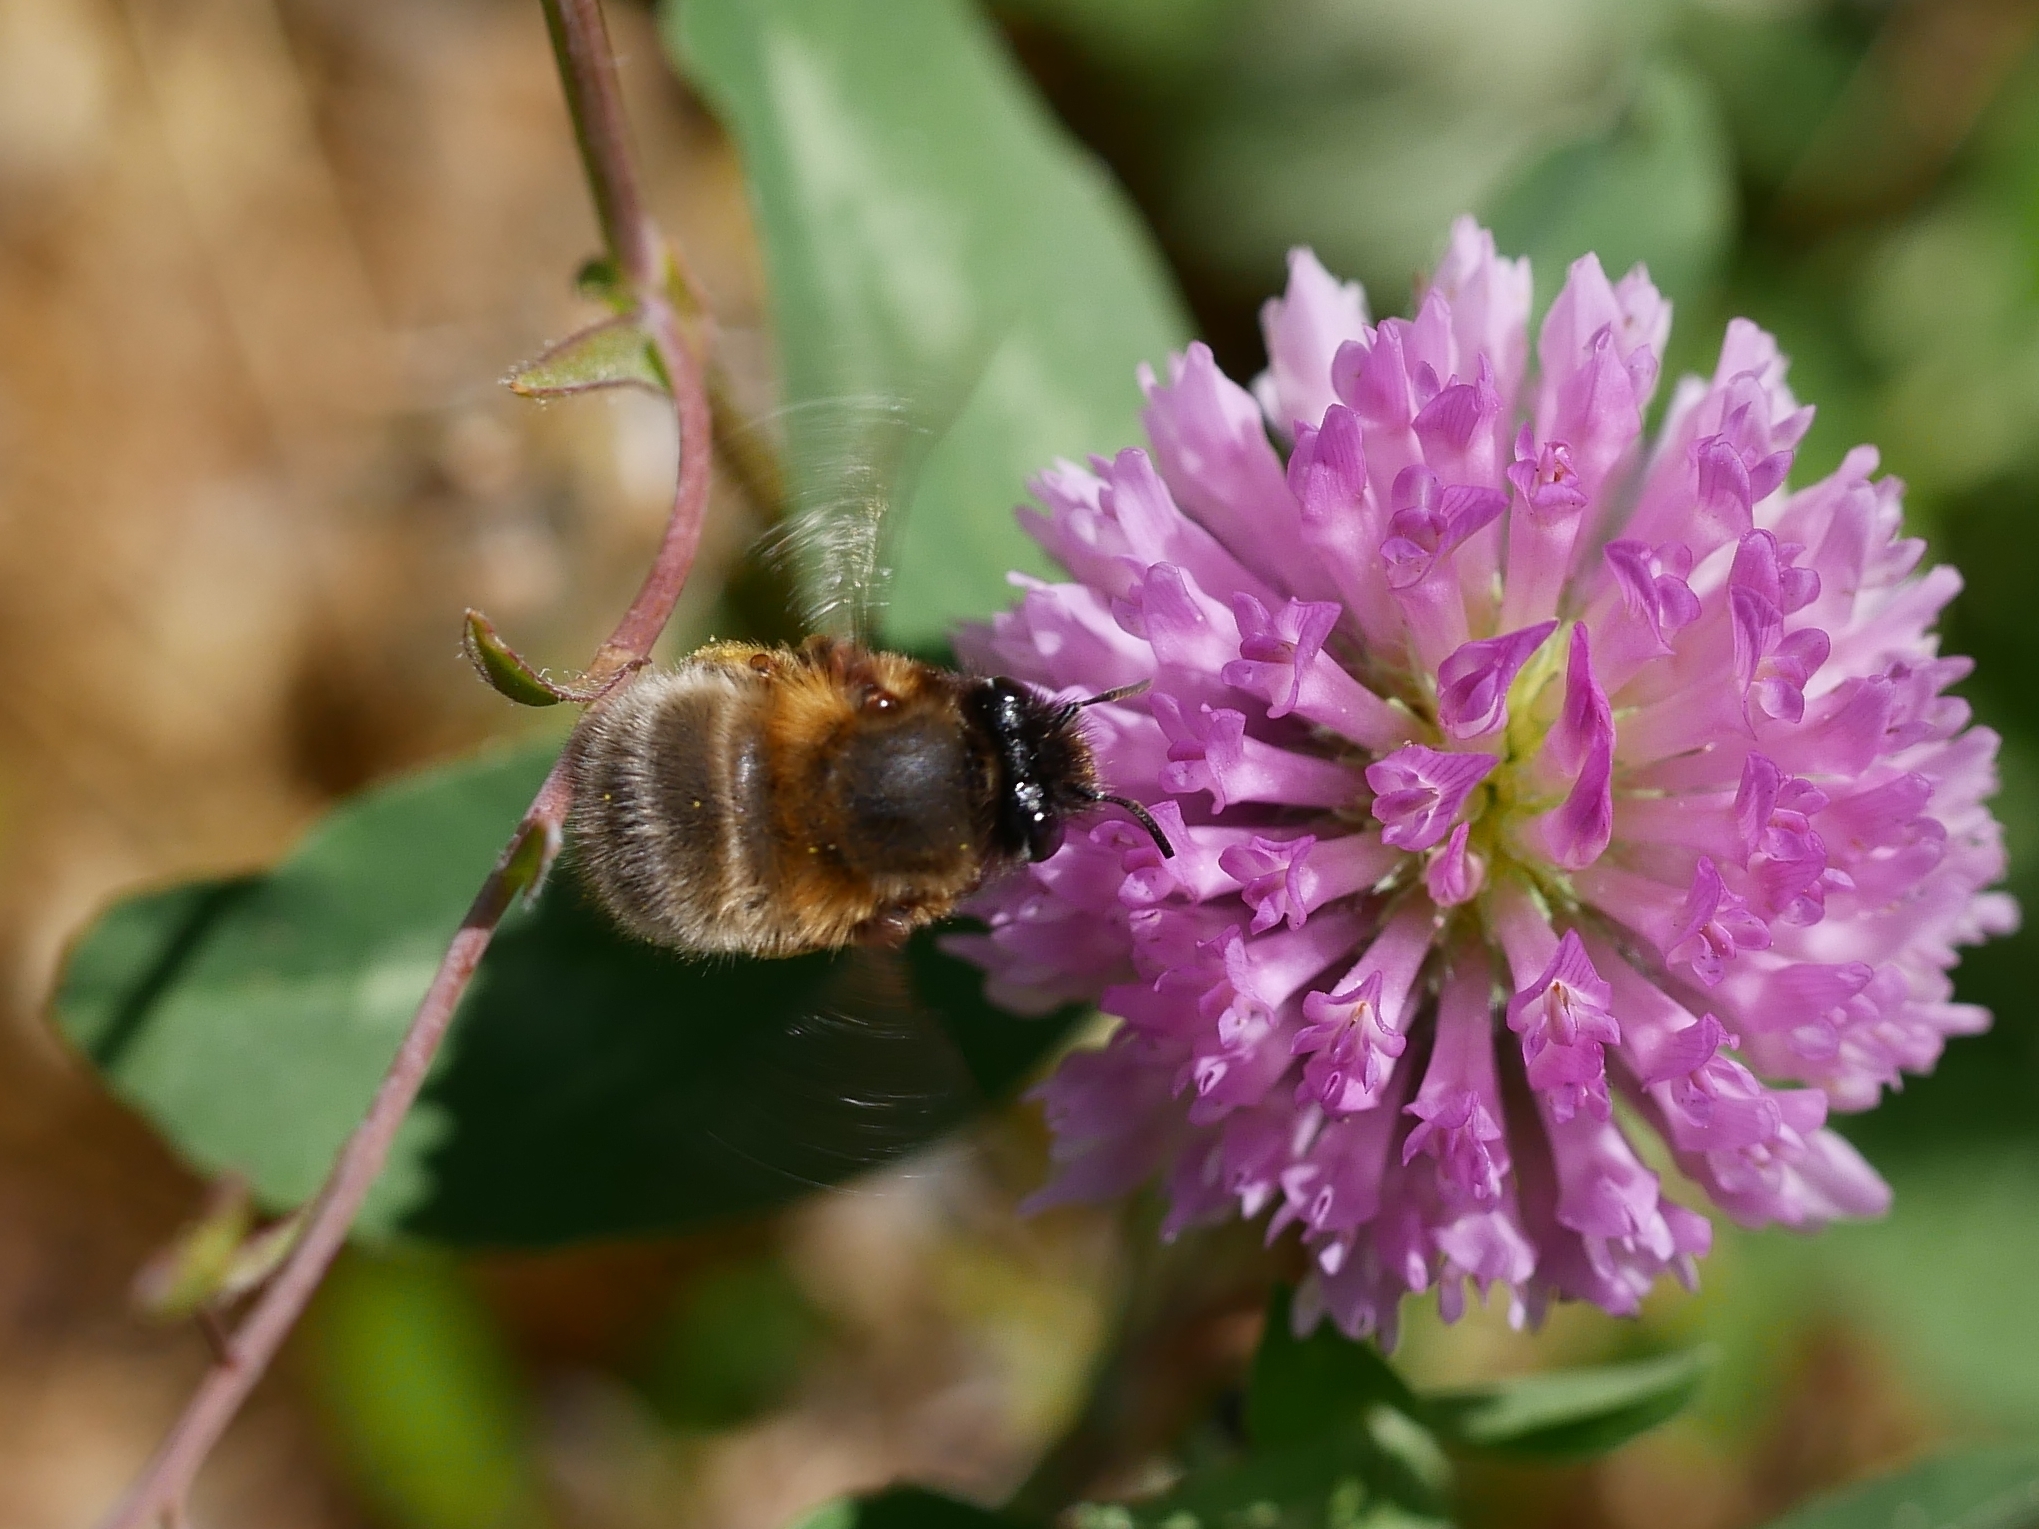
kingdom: Animalia
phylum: Arthropoda
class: Insecta
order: Hymenoptera
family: Apidae
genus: Anthophora
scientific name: Anthophora plumipes
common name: Hairy-footed flower bee
